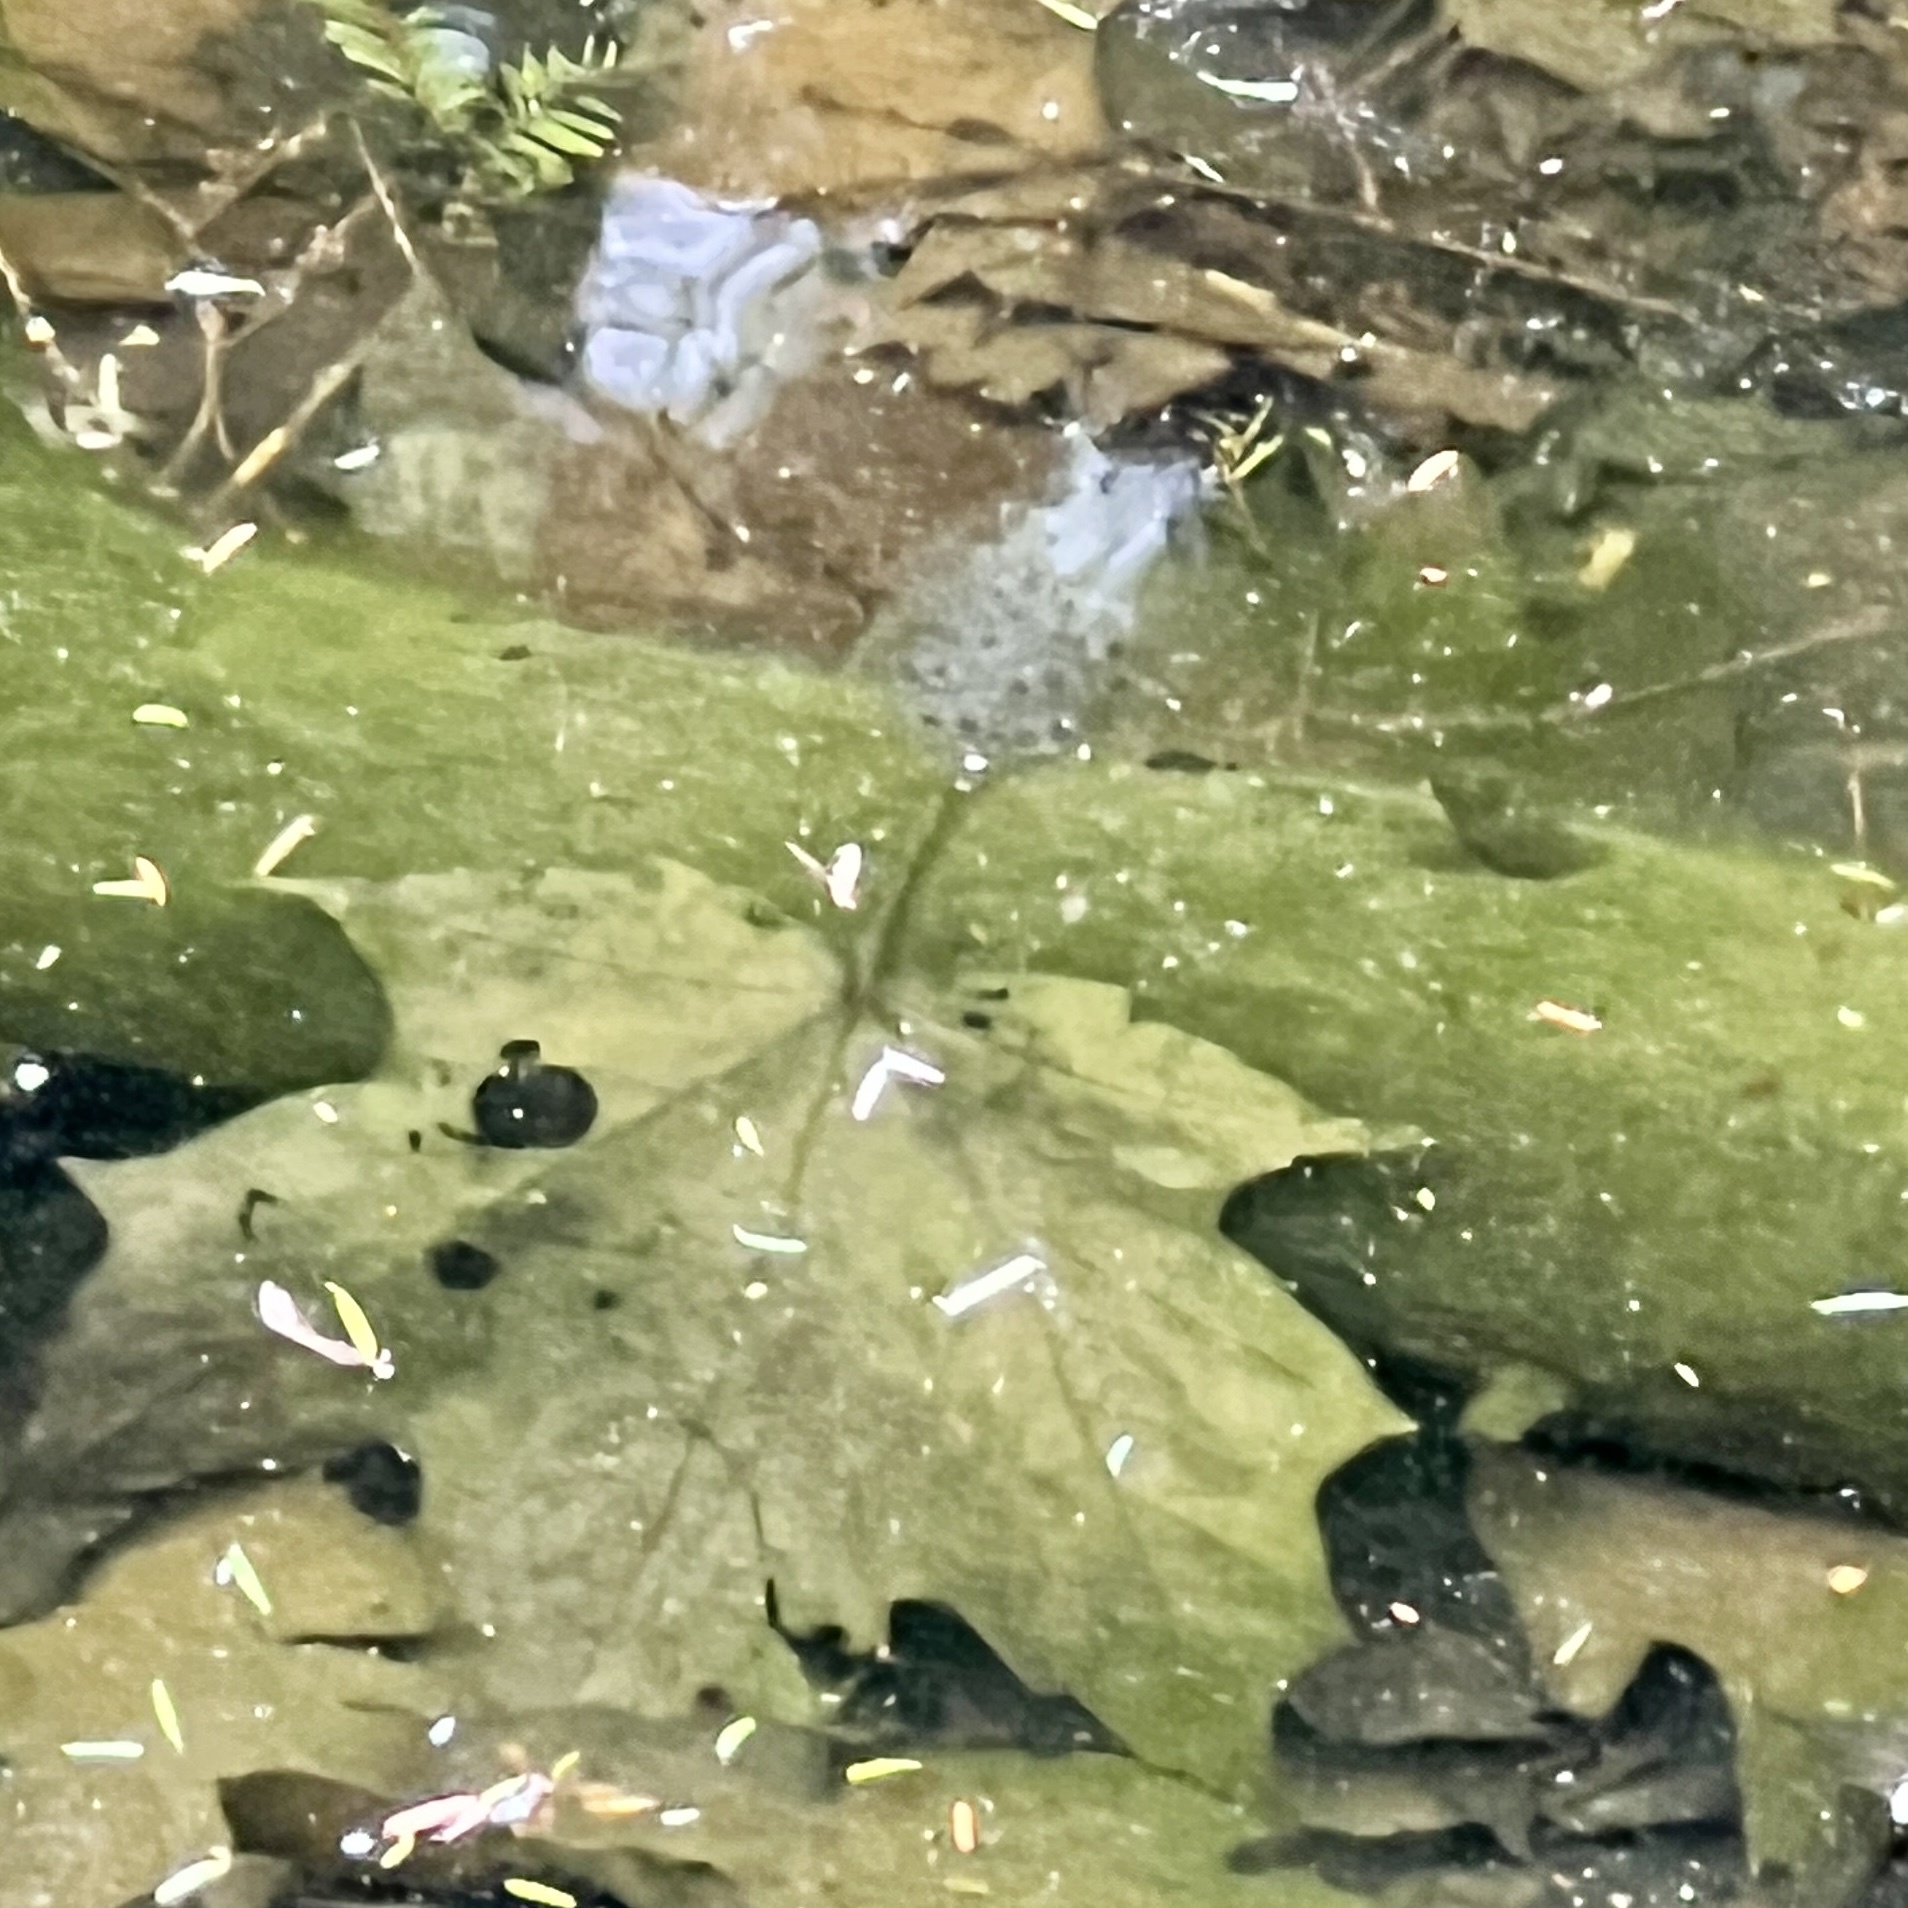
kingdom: Animalia
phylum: Chordata
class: Amphibia
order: Caudata
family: Ambystomatidae
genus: Ambystoma
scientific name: Ambystoma maculatum
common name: Spotted salamander
